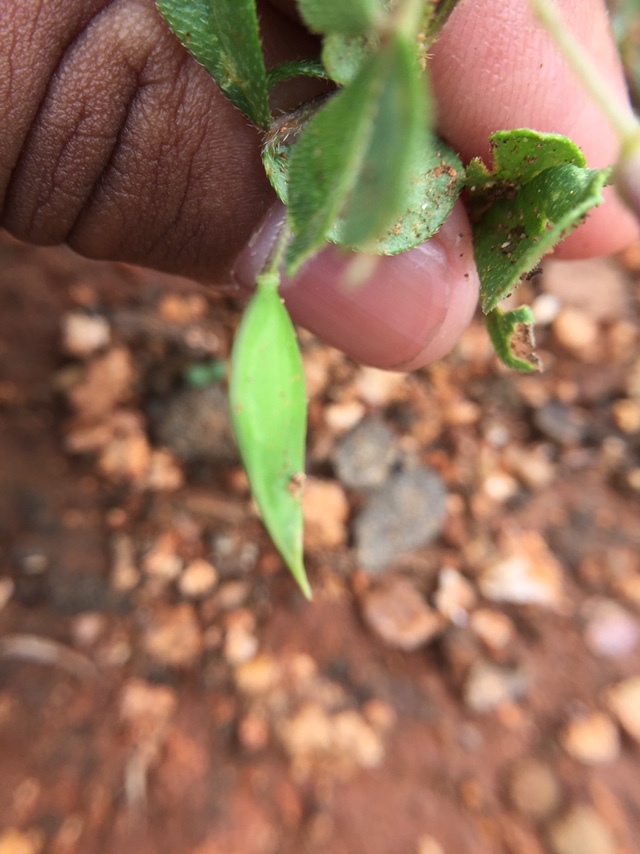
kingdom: Plantae
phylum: Tracheophyta
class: Magnoliopsida
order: Brassicales
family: Cleomaceae
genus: Corynandra
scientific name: Corynandra felina
